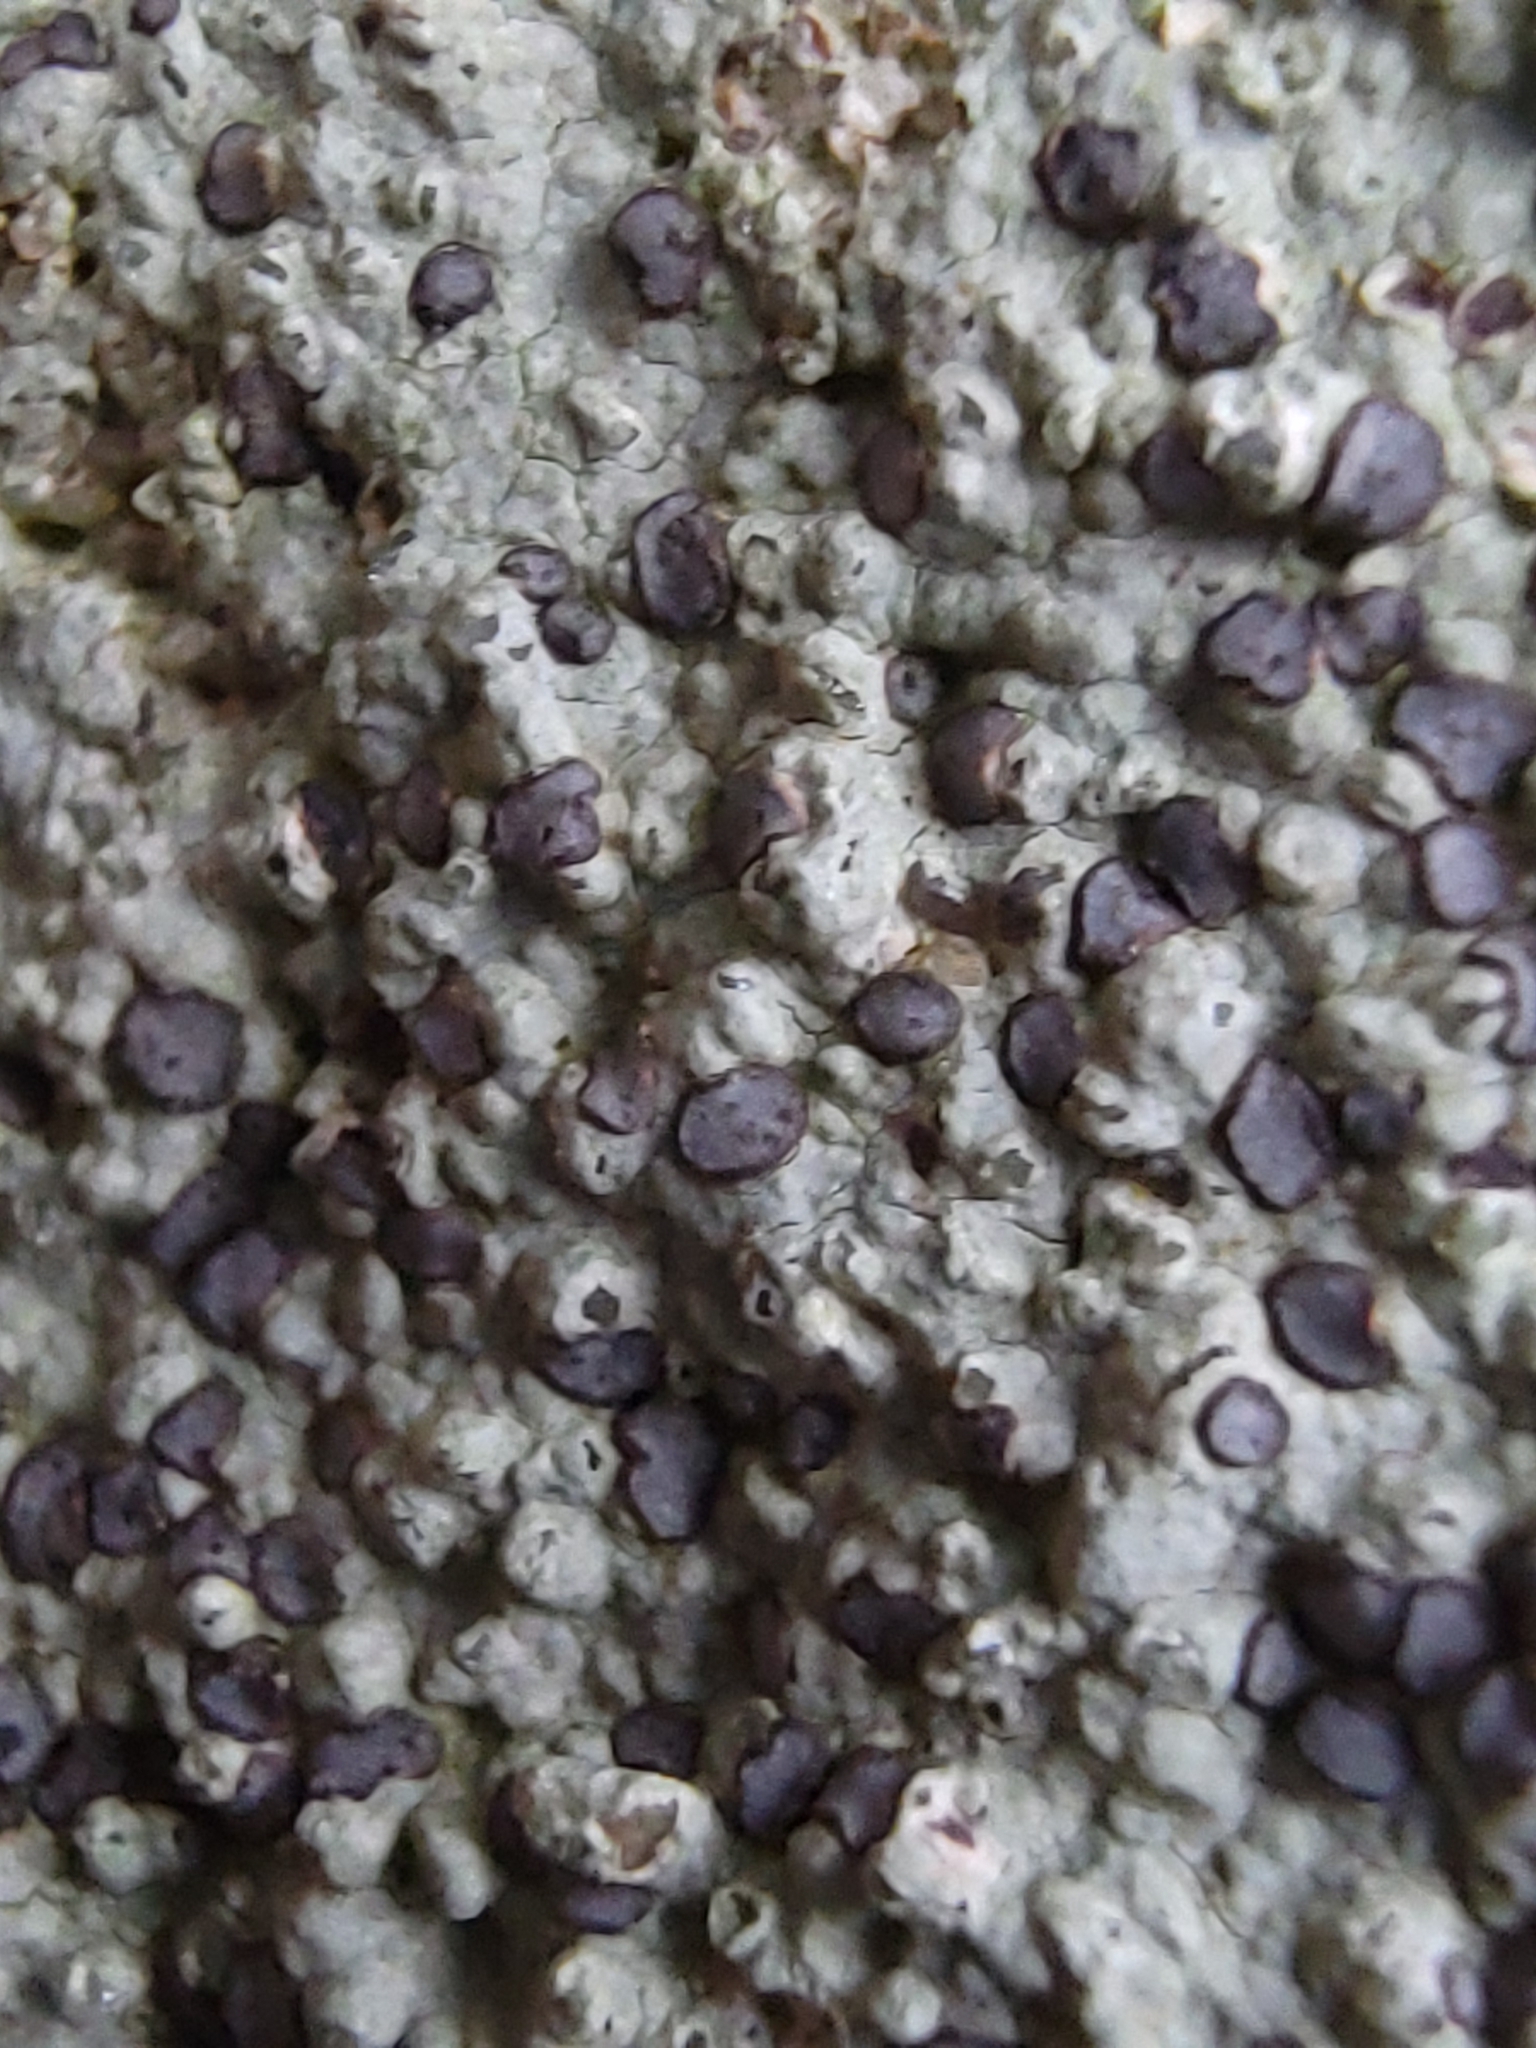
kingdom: Fungi
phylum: Ascomycota
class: Lecanoromycetes
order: Lecideales
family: Lecideaceae
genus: Porpidia
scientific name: Porpidia albocaerulescens
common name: Smokey-eyed boulder lichen
